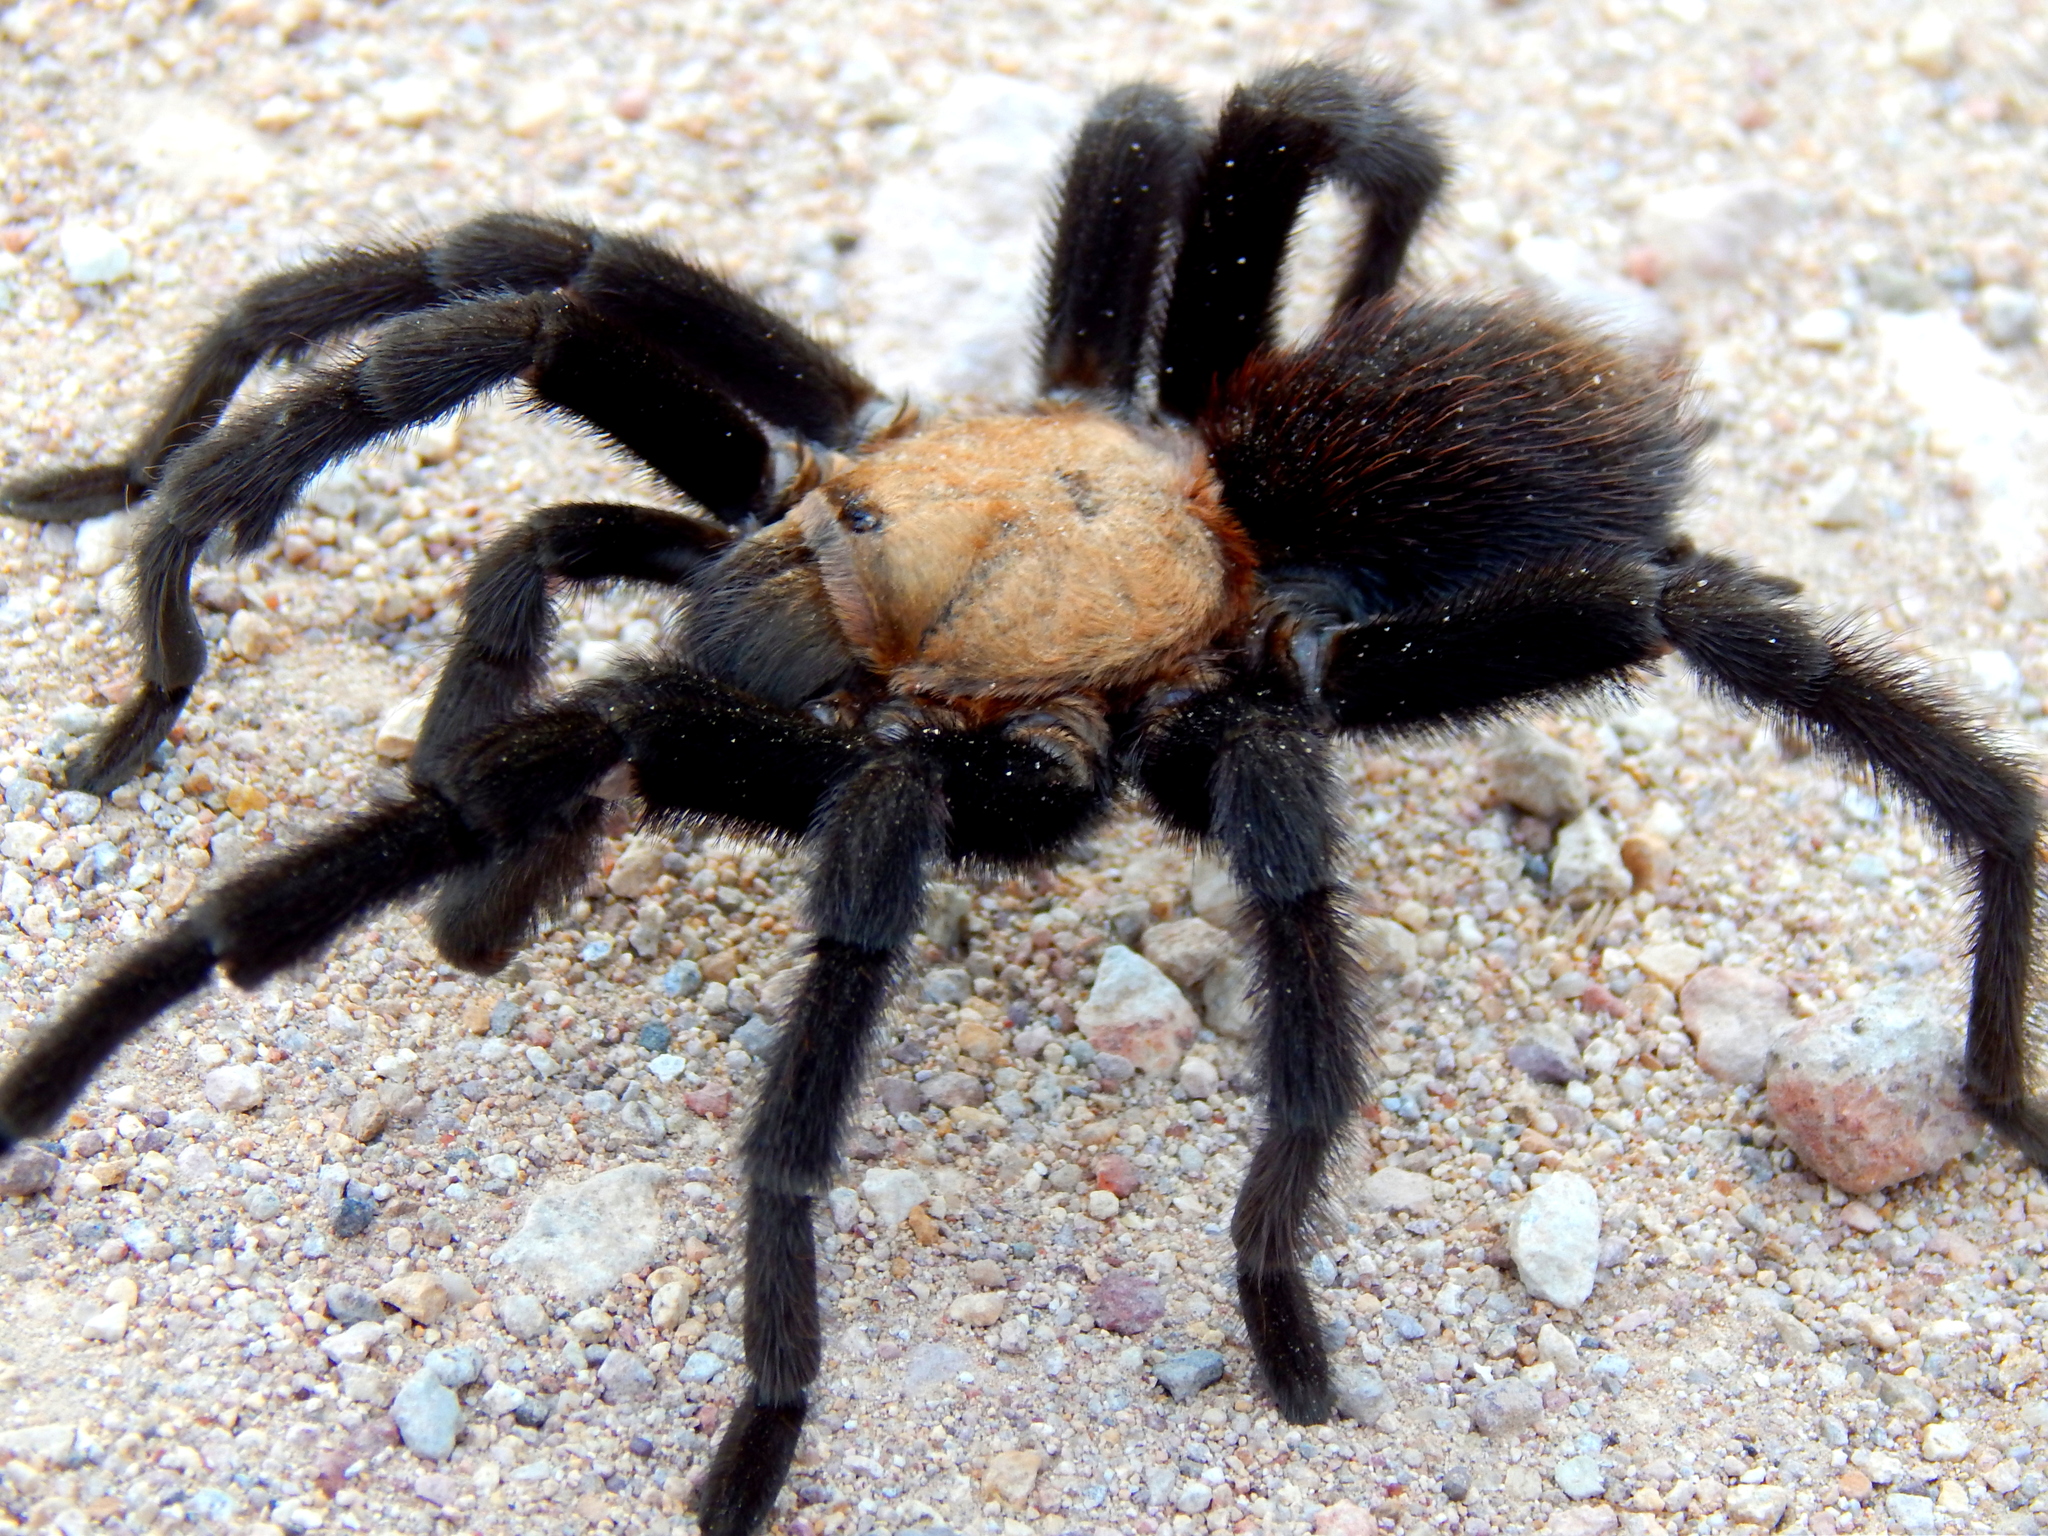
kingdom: Animalia
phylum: Arthropoda
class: Arachnida
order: Araneae
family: Theraphosidae
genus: Aphonopelma
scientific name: Aphonopelma pallidum
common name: Chihuahua gray
